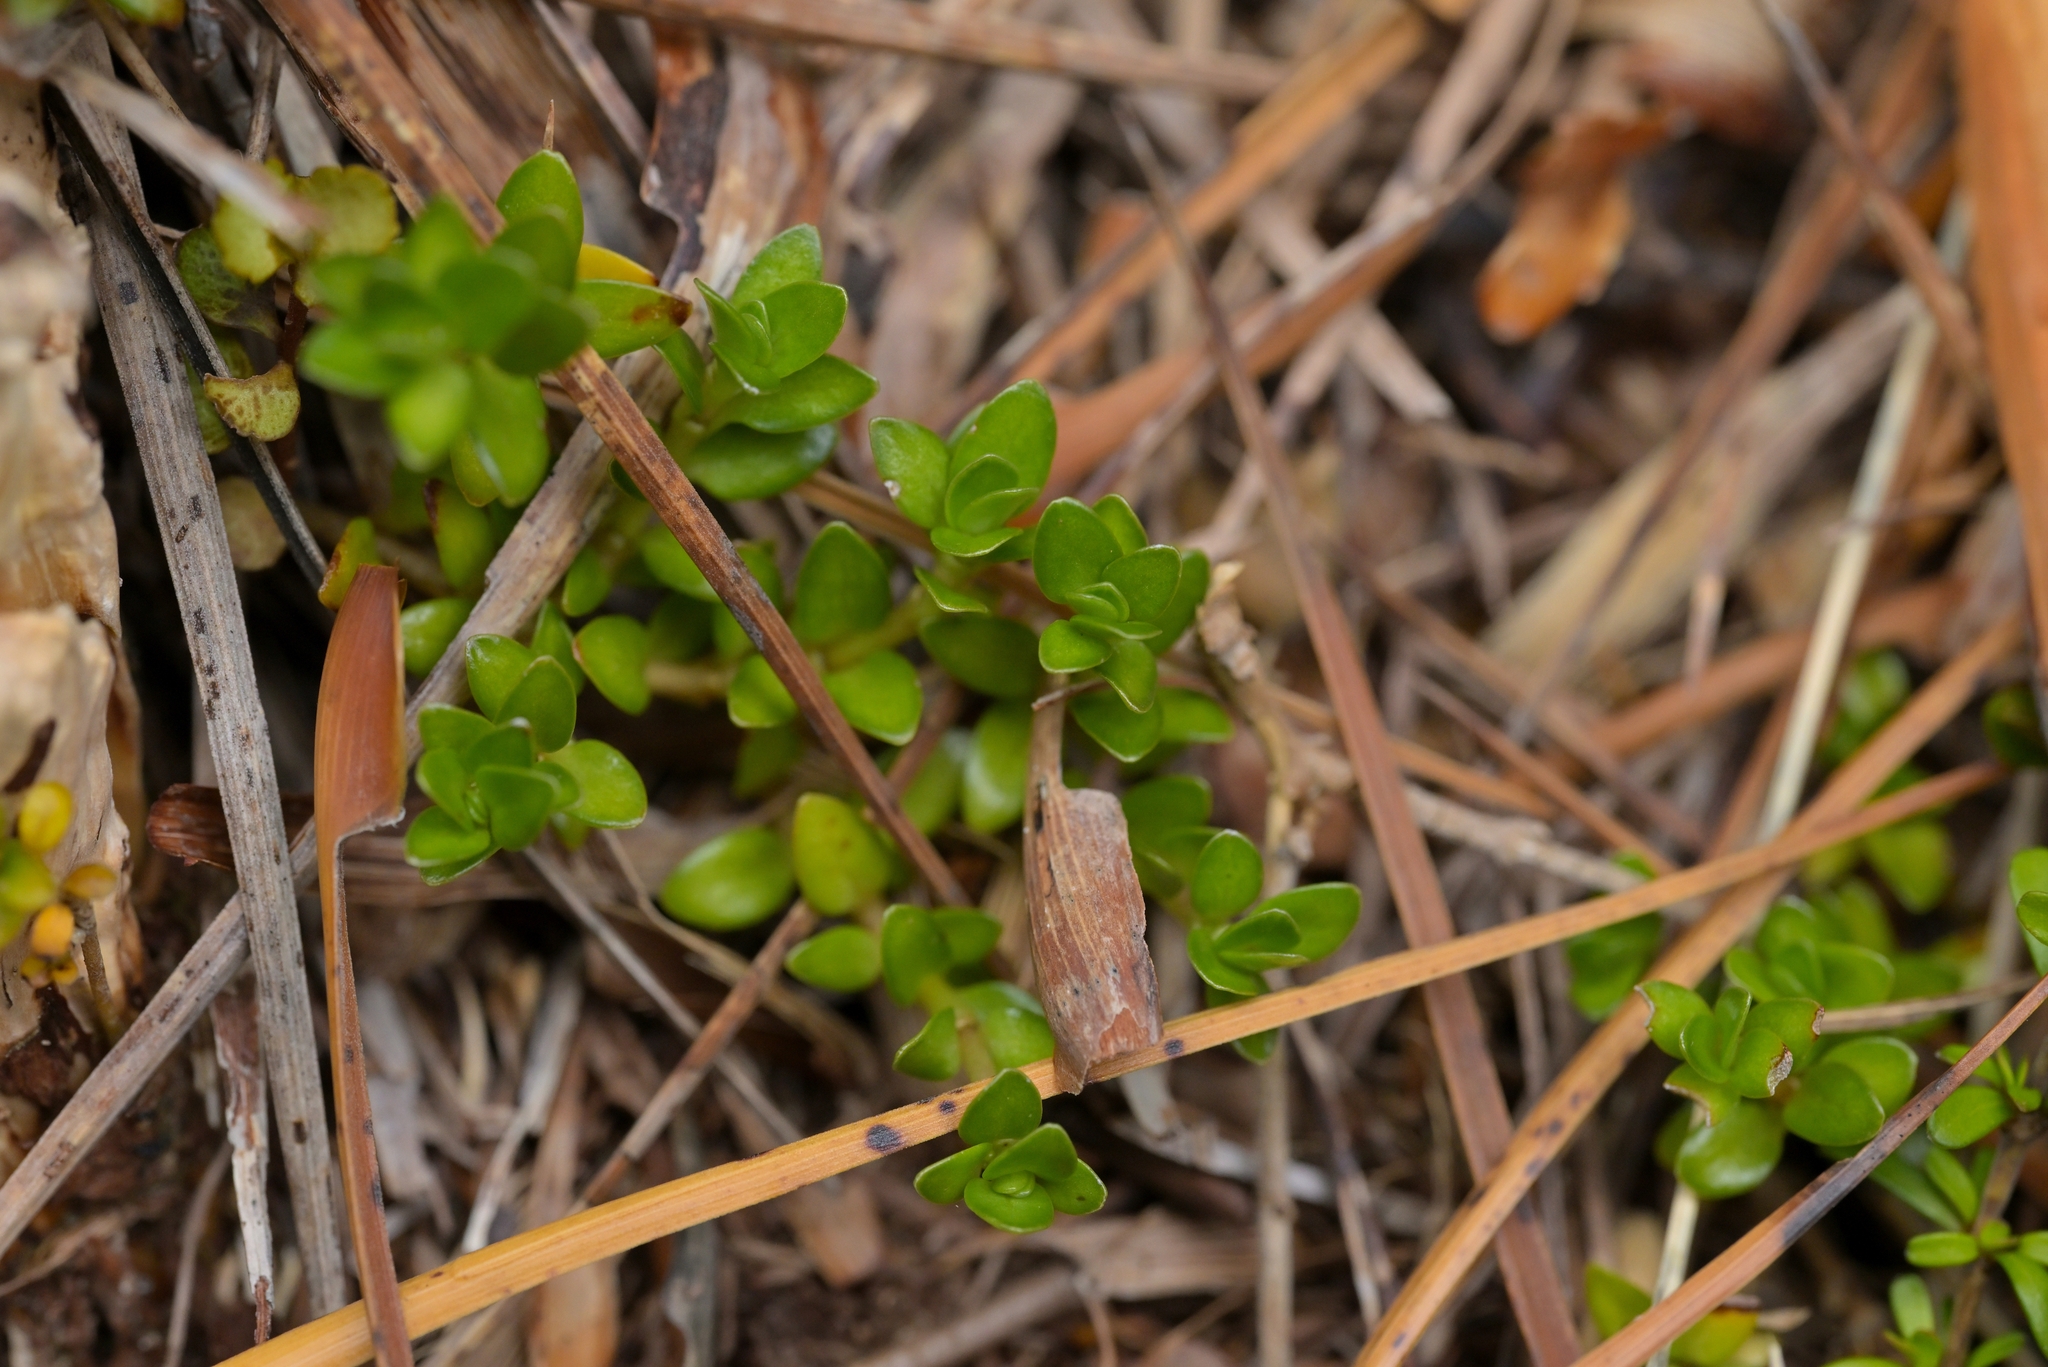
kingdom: Plantae
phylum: Tracheophyta
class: Magnoliopsida
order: Gentianales
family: Rubiaceae
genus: Coprosma
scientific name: Coprosma perpusilla
